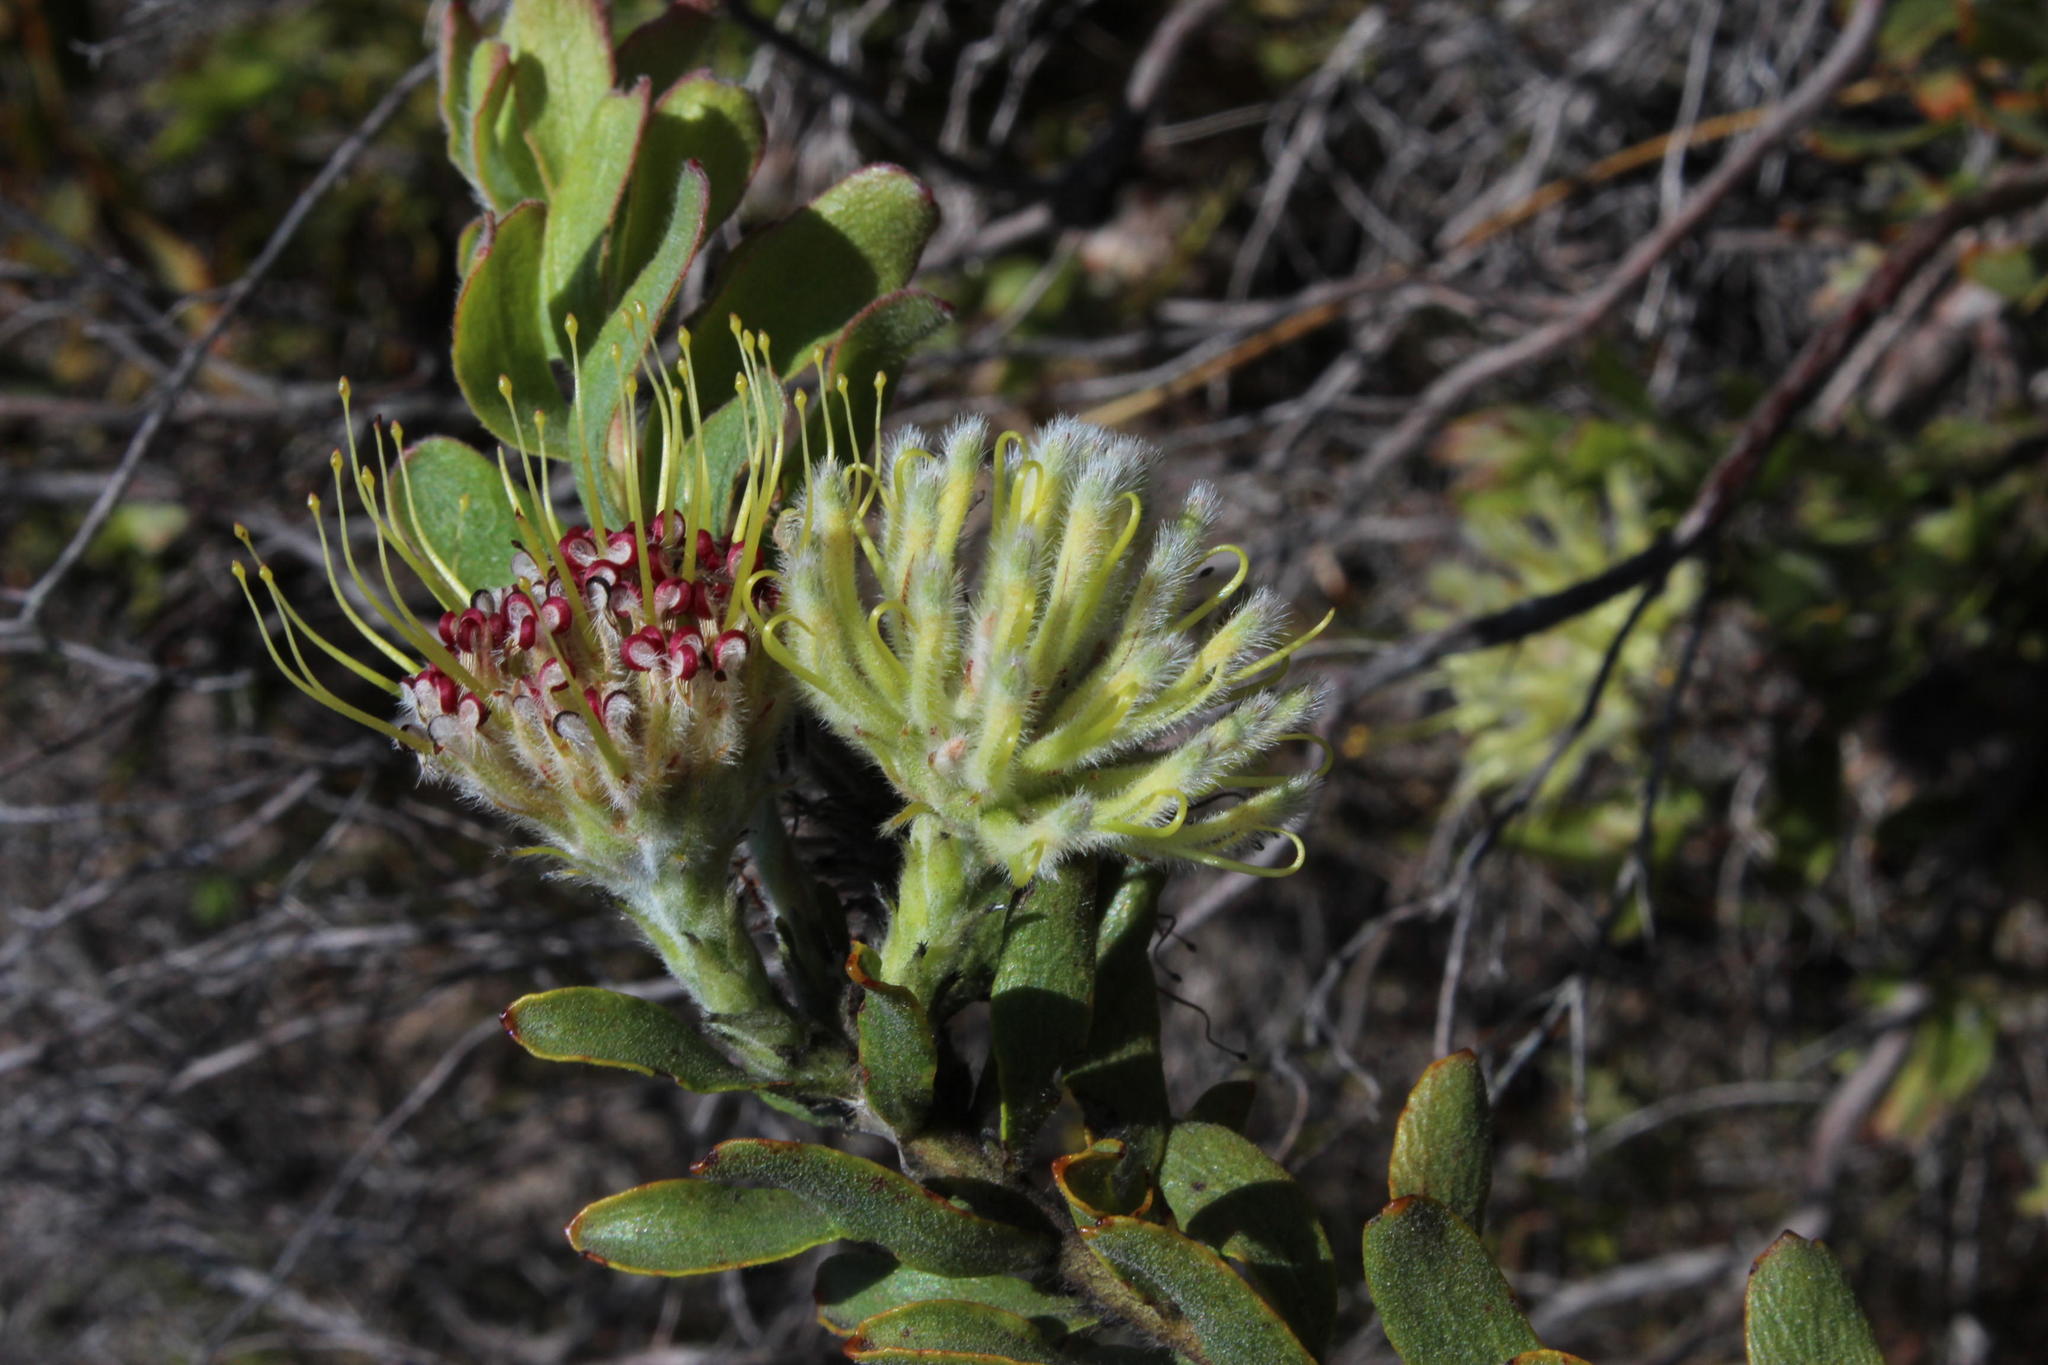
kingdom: Plantae
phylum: Tracheophyta
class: Magnoliopsida
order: Proteales
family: Proteaceae
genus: Leucospermum
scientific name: Leucospermum heterophyllum
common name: Trident pincushion
